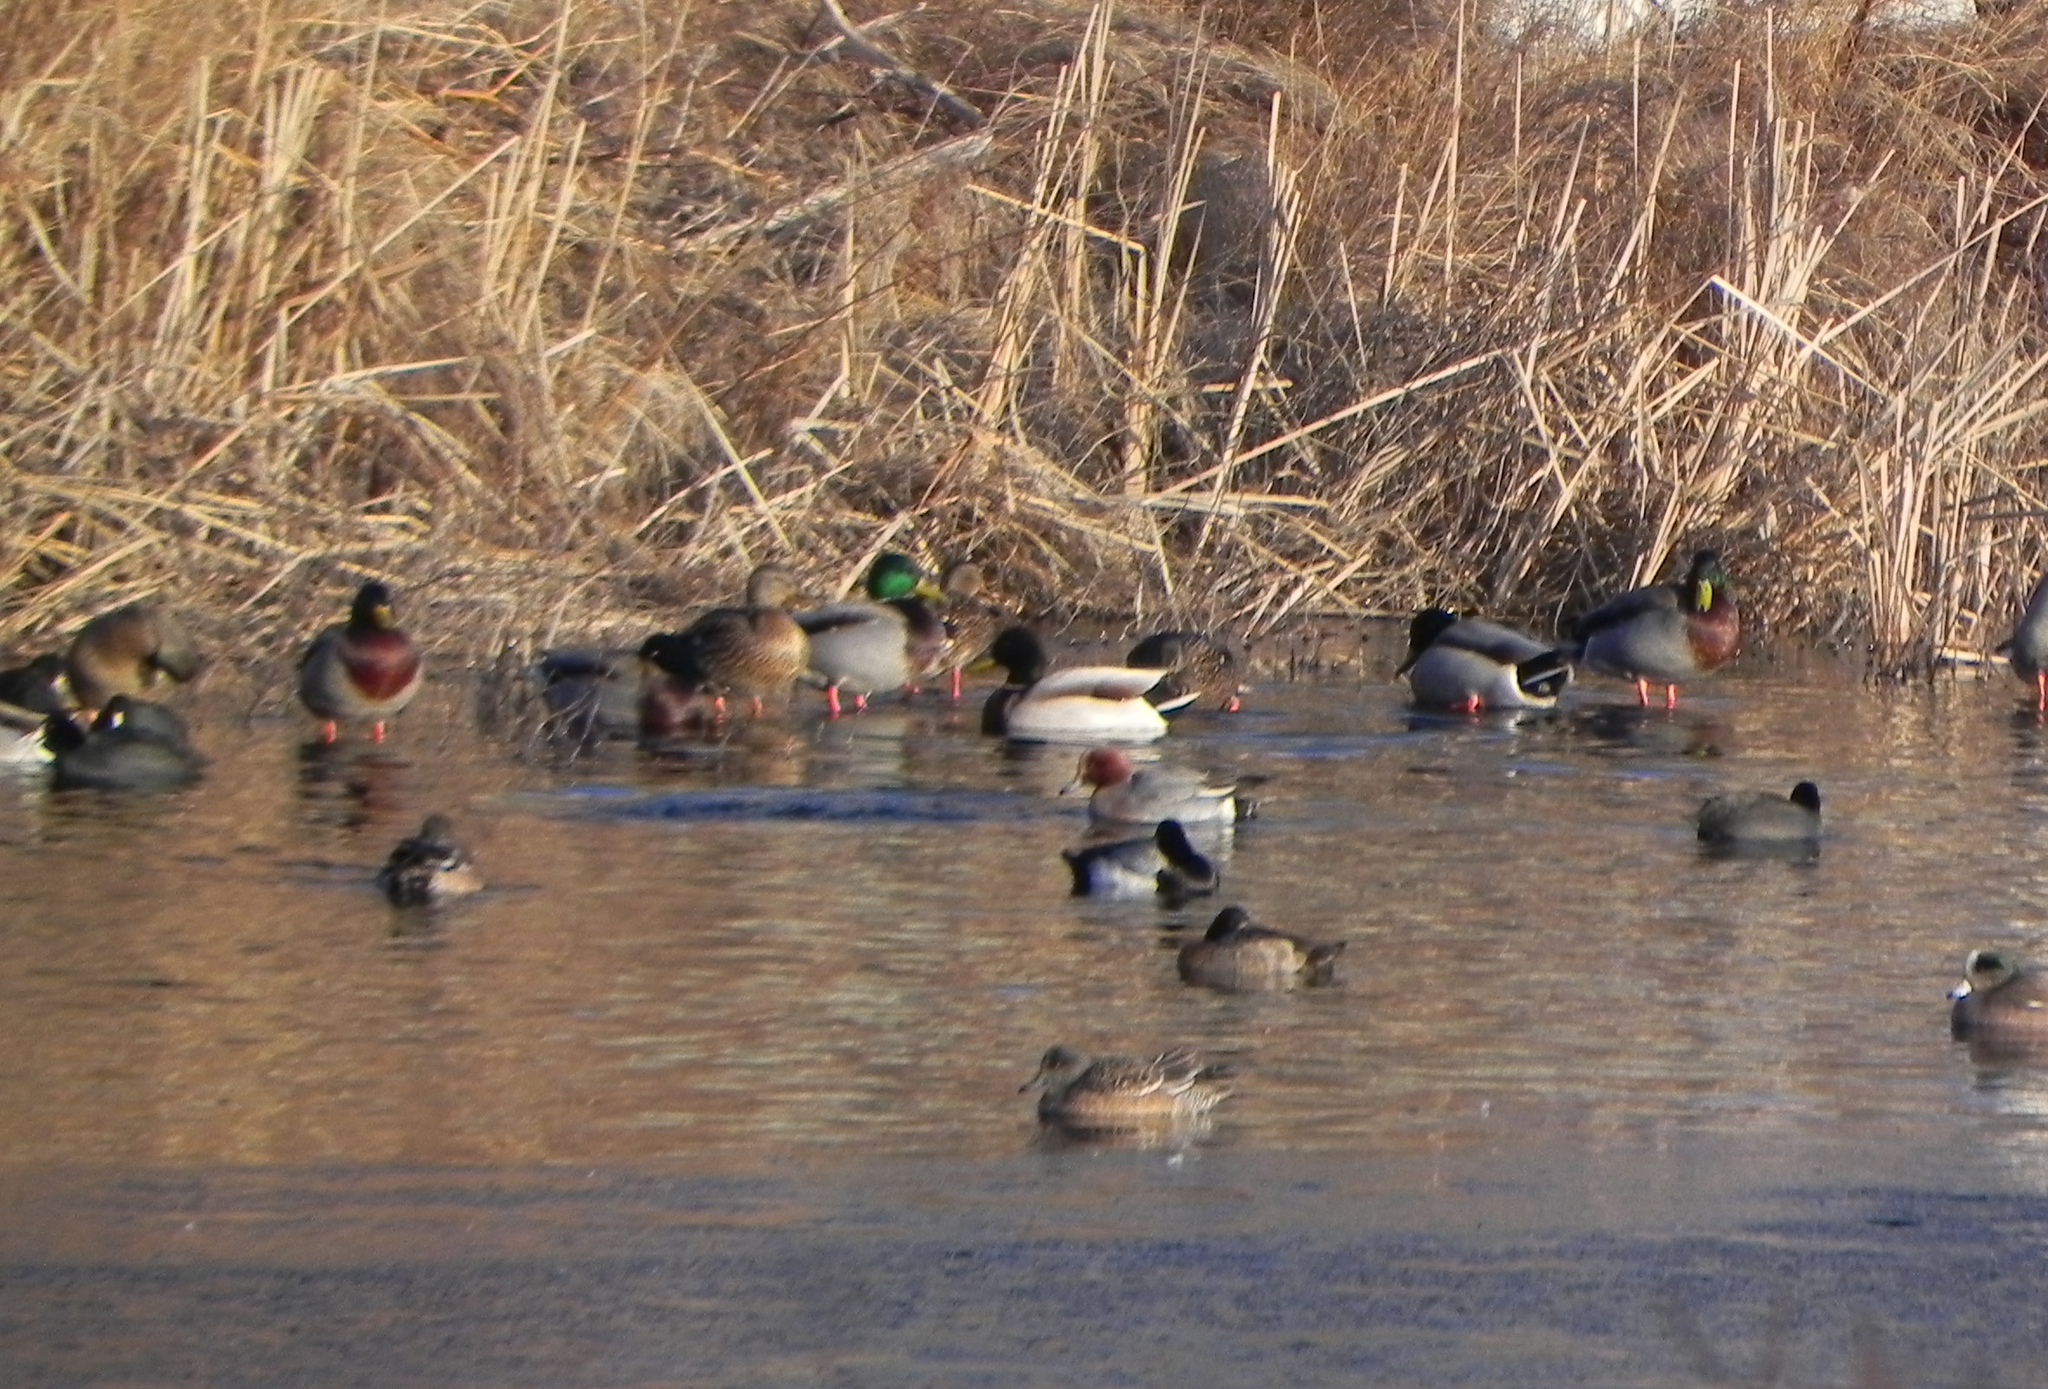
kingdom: Animalia
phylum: Chordata
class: Aves
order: Anseriformes
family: Anatidae
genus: Mareca
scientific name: Mareca penelope
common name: Eurasian wigeon
